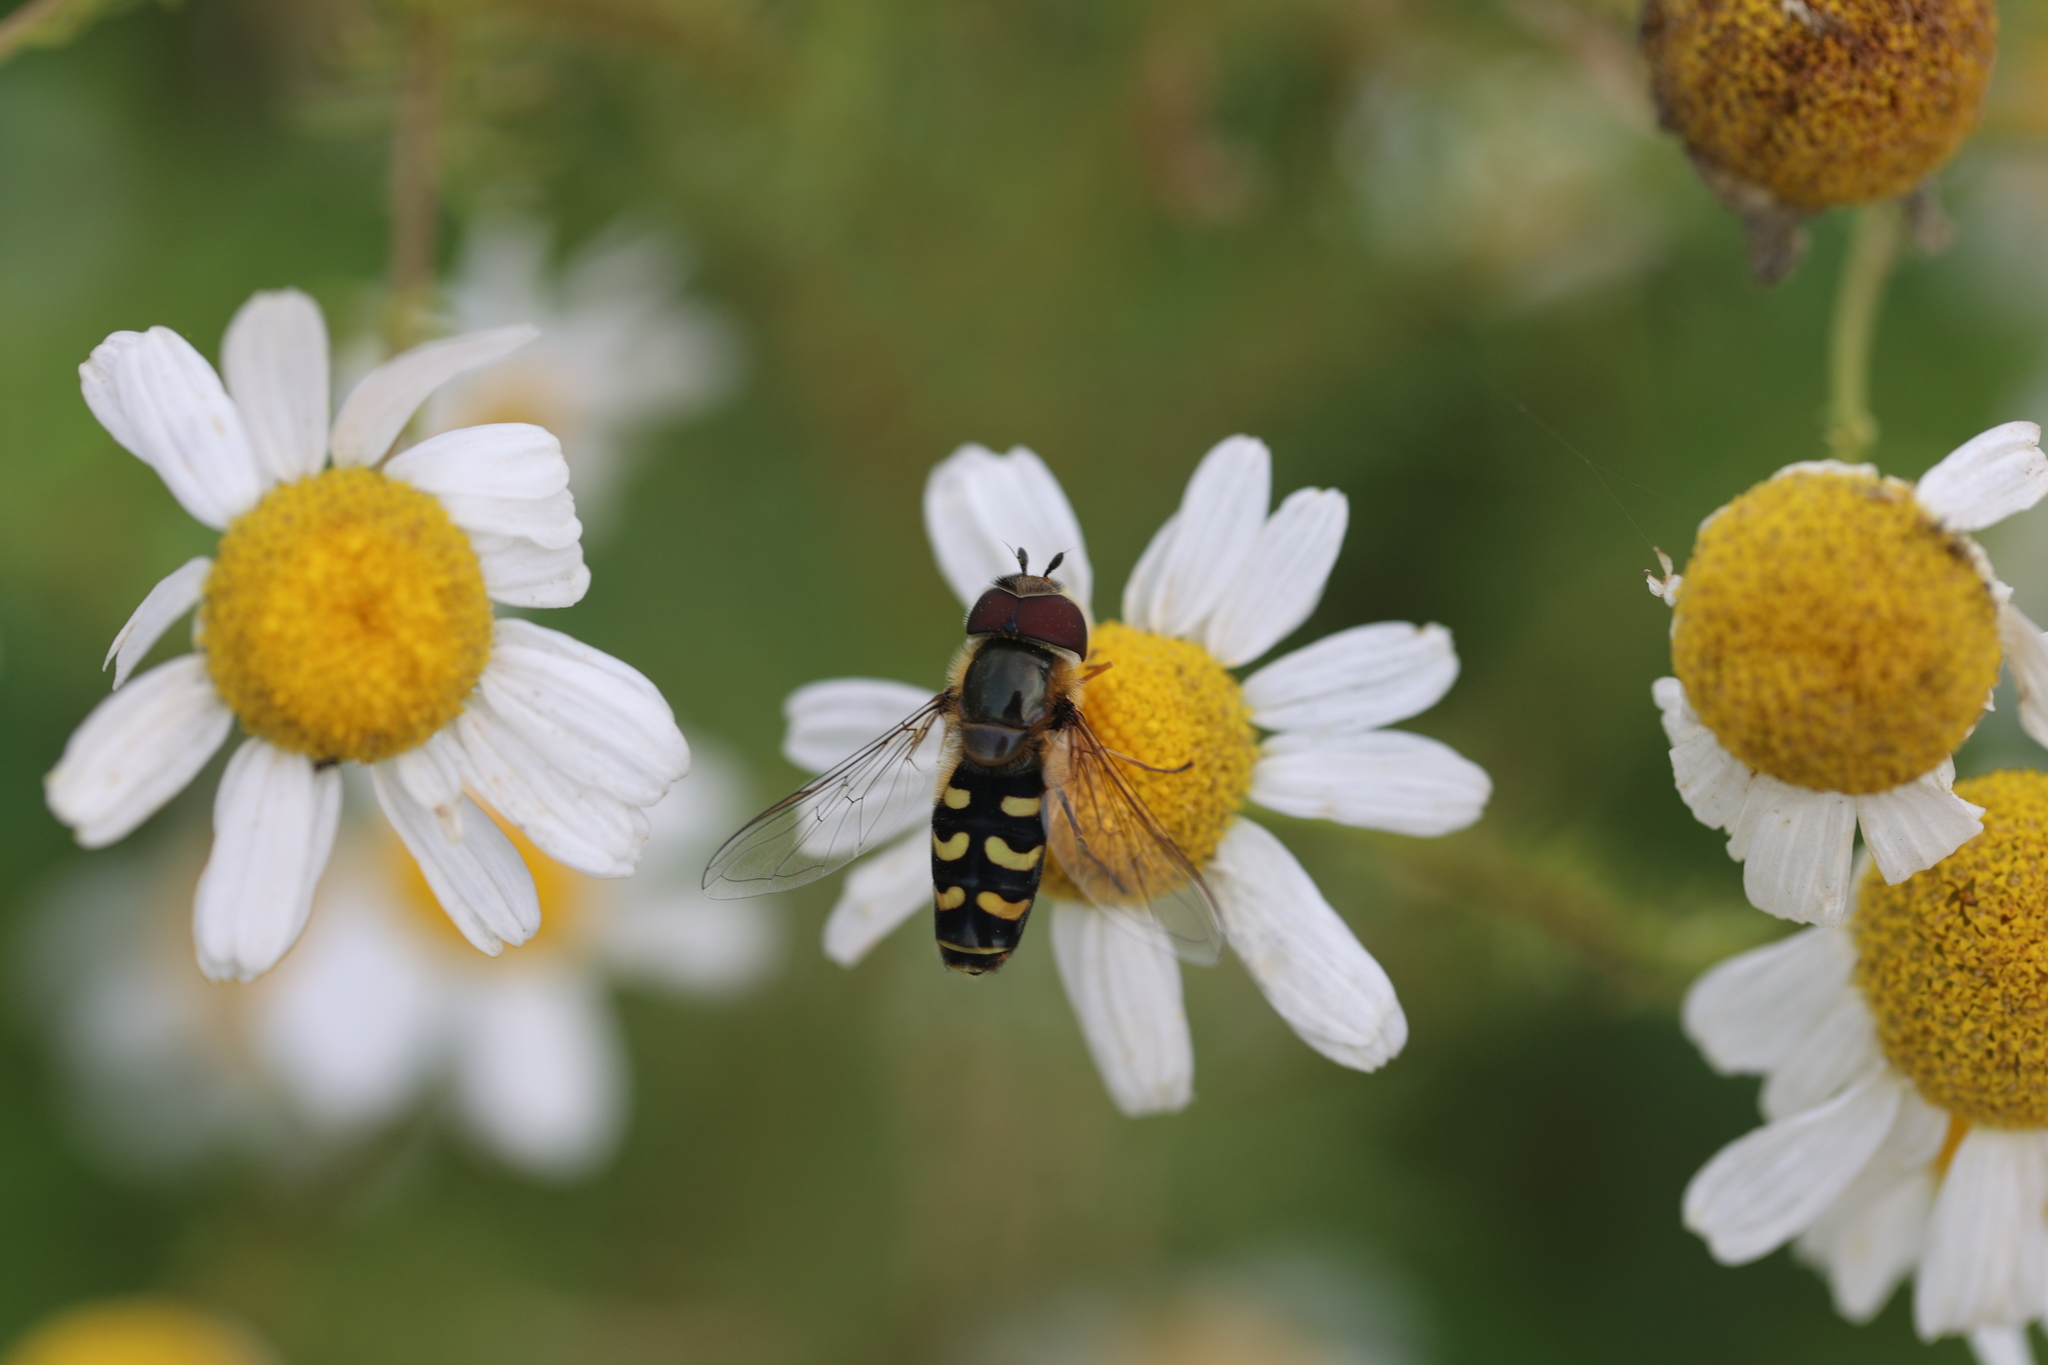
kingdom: Animalia
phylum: Arthropoda
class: Insecta
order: Diptera
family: Syrphidae
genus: Scaeva
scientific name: Scaeva pyrastri
